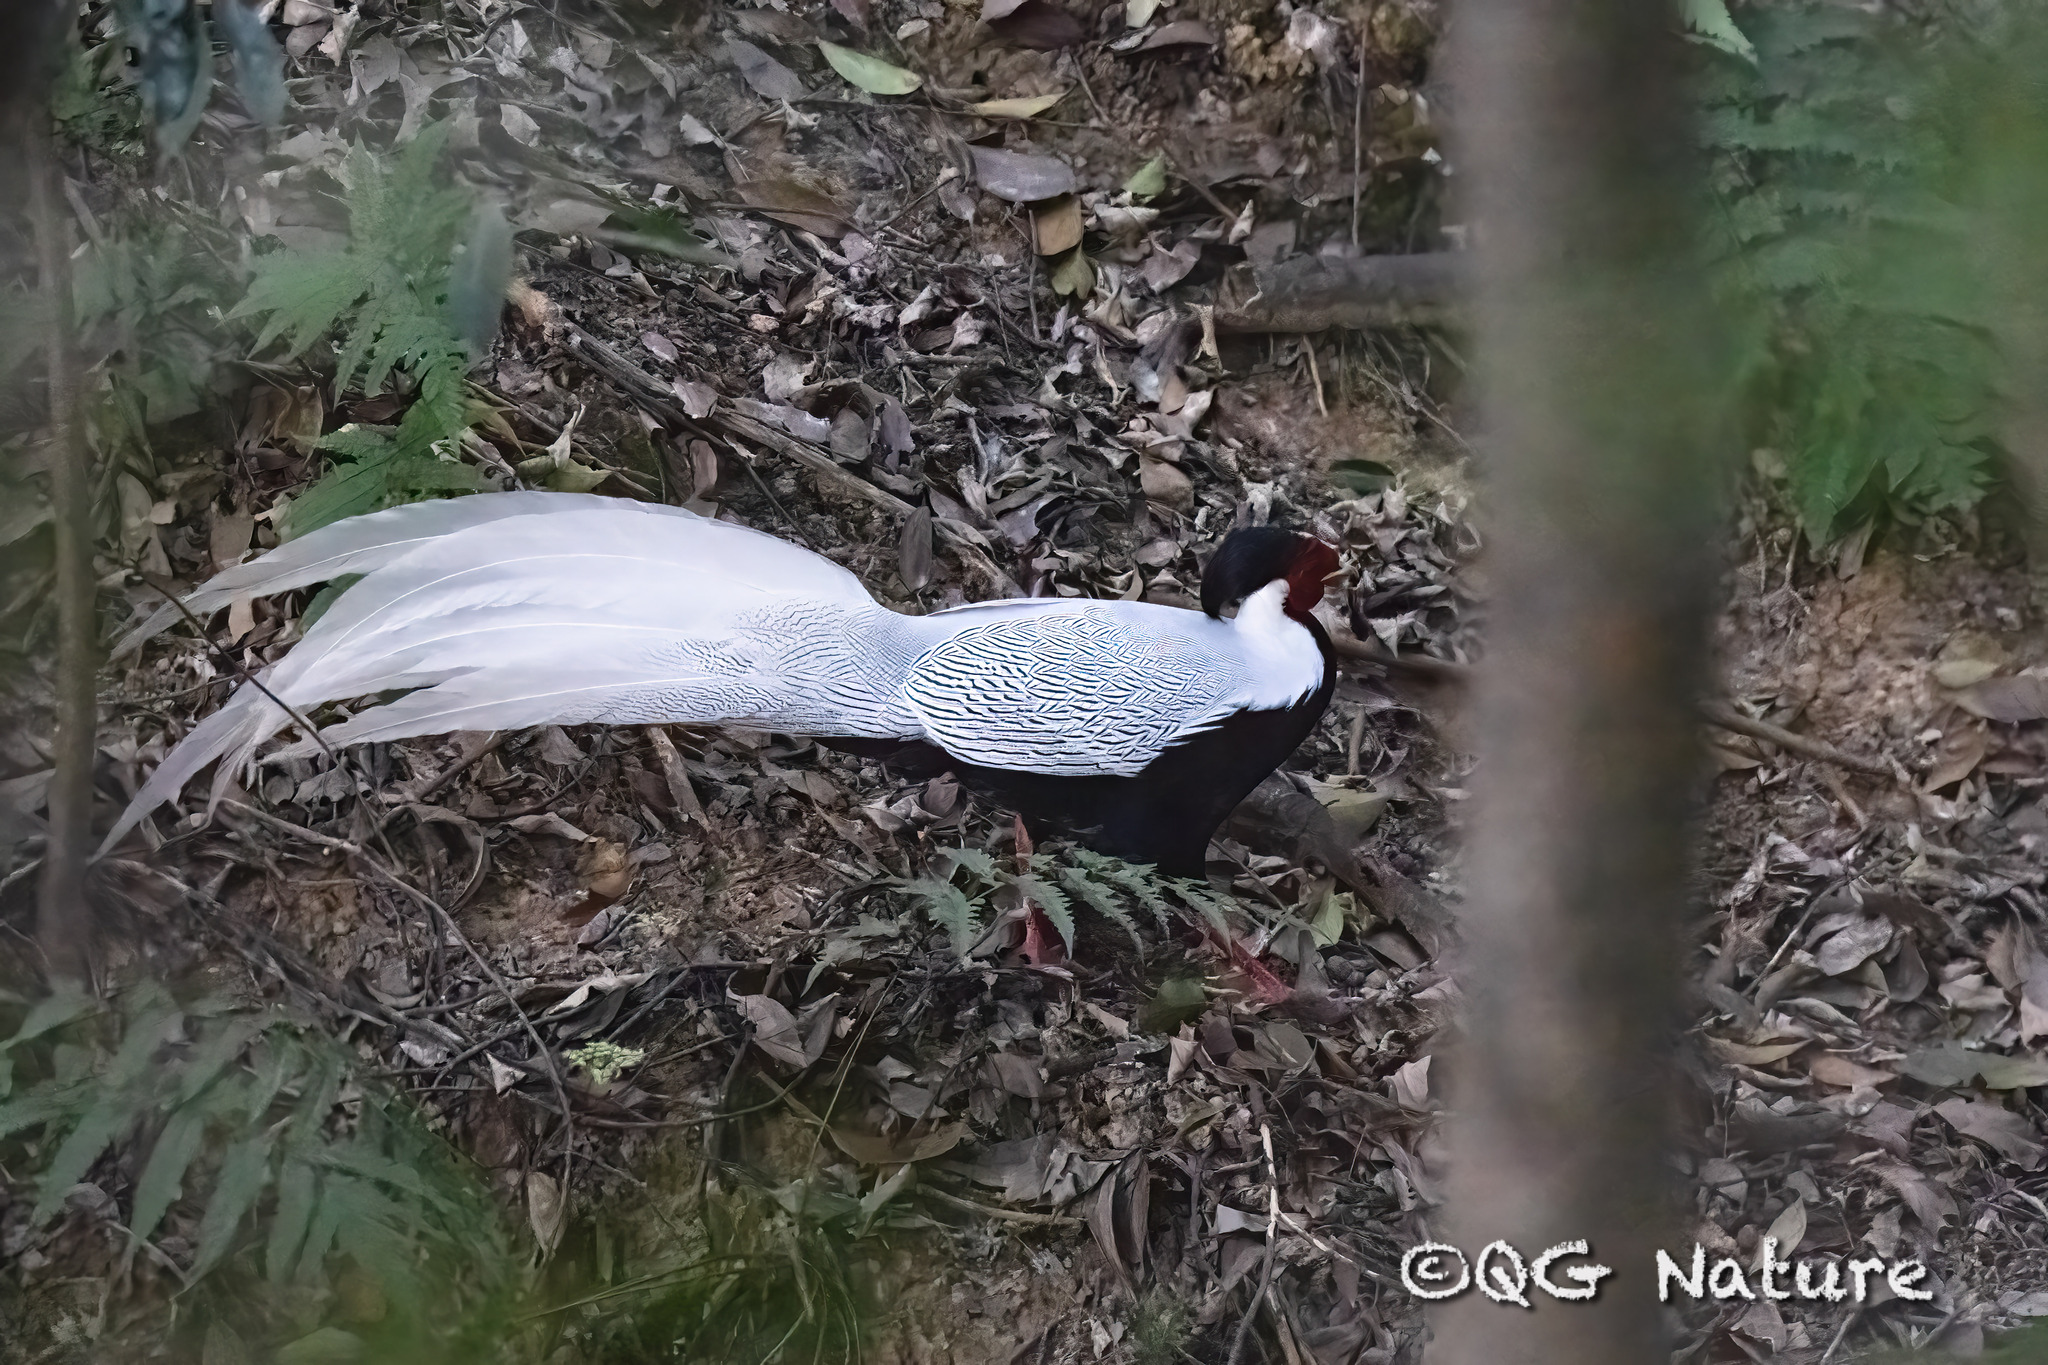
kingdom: Animalia
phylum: Chordata
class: Aves
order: Galliformes
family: Phasianidae
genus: Lophura
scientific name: Lophura nycthemera
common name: Silver pheasant
